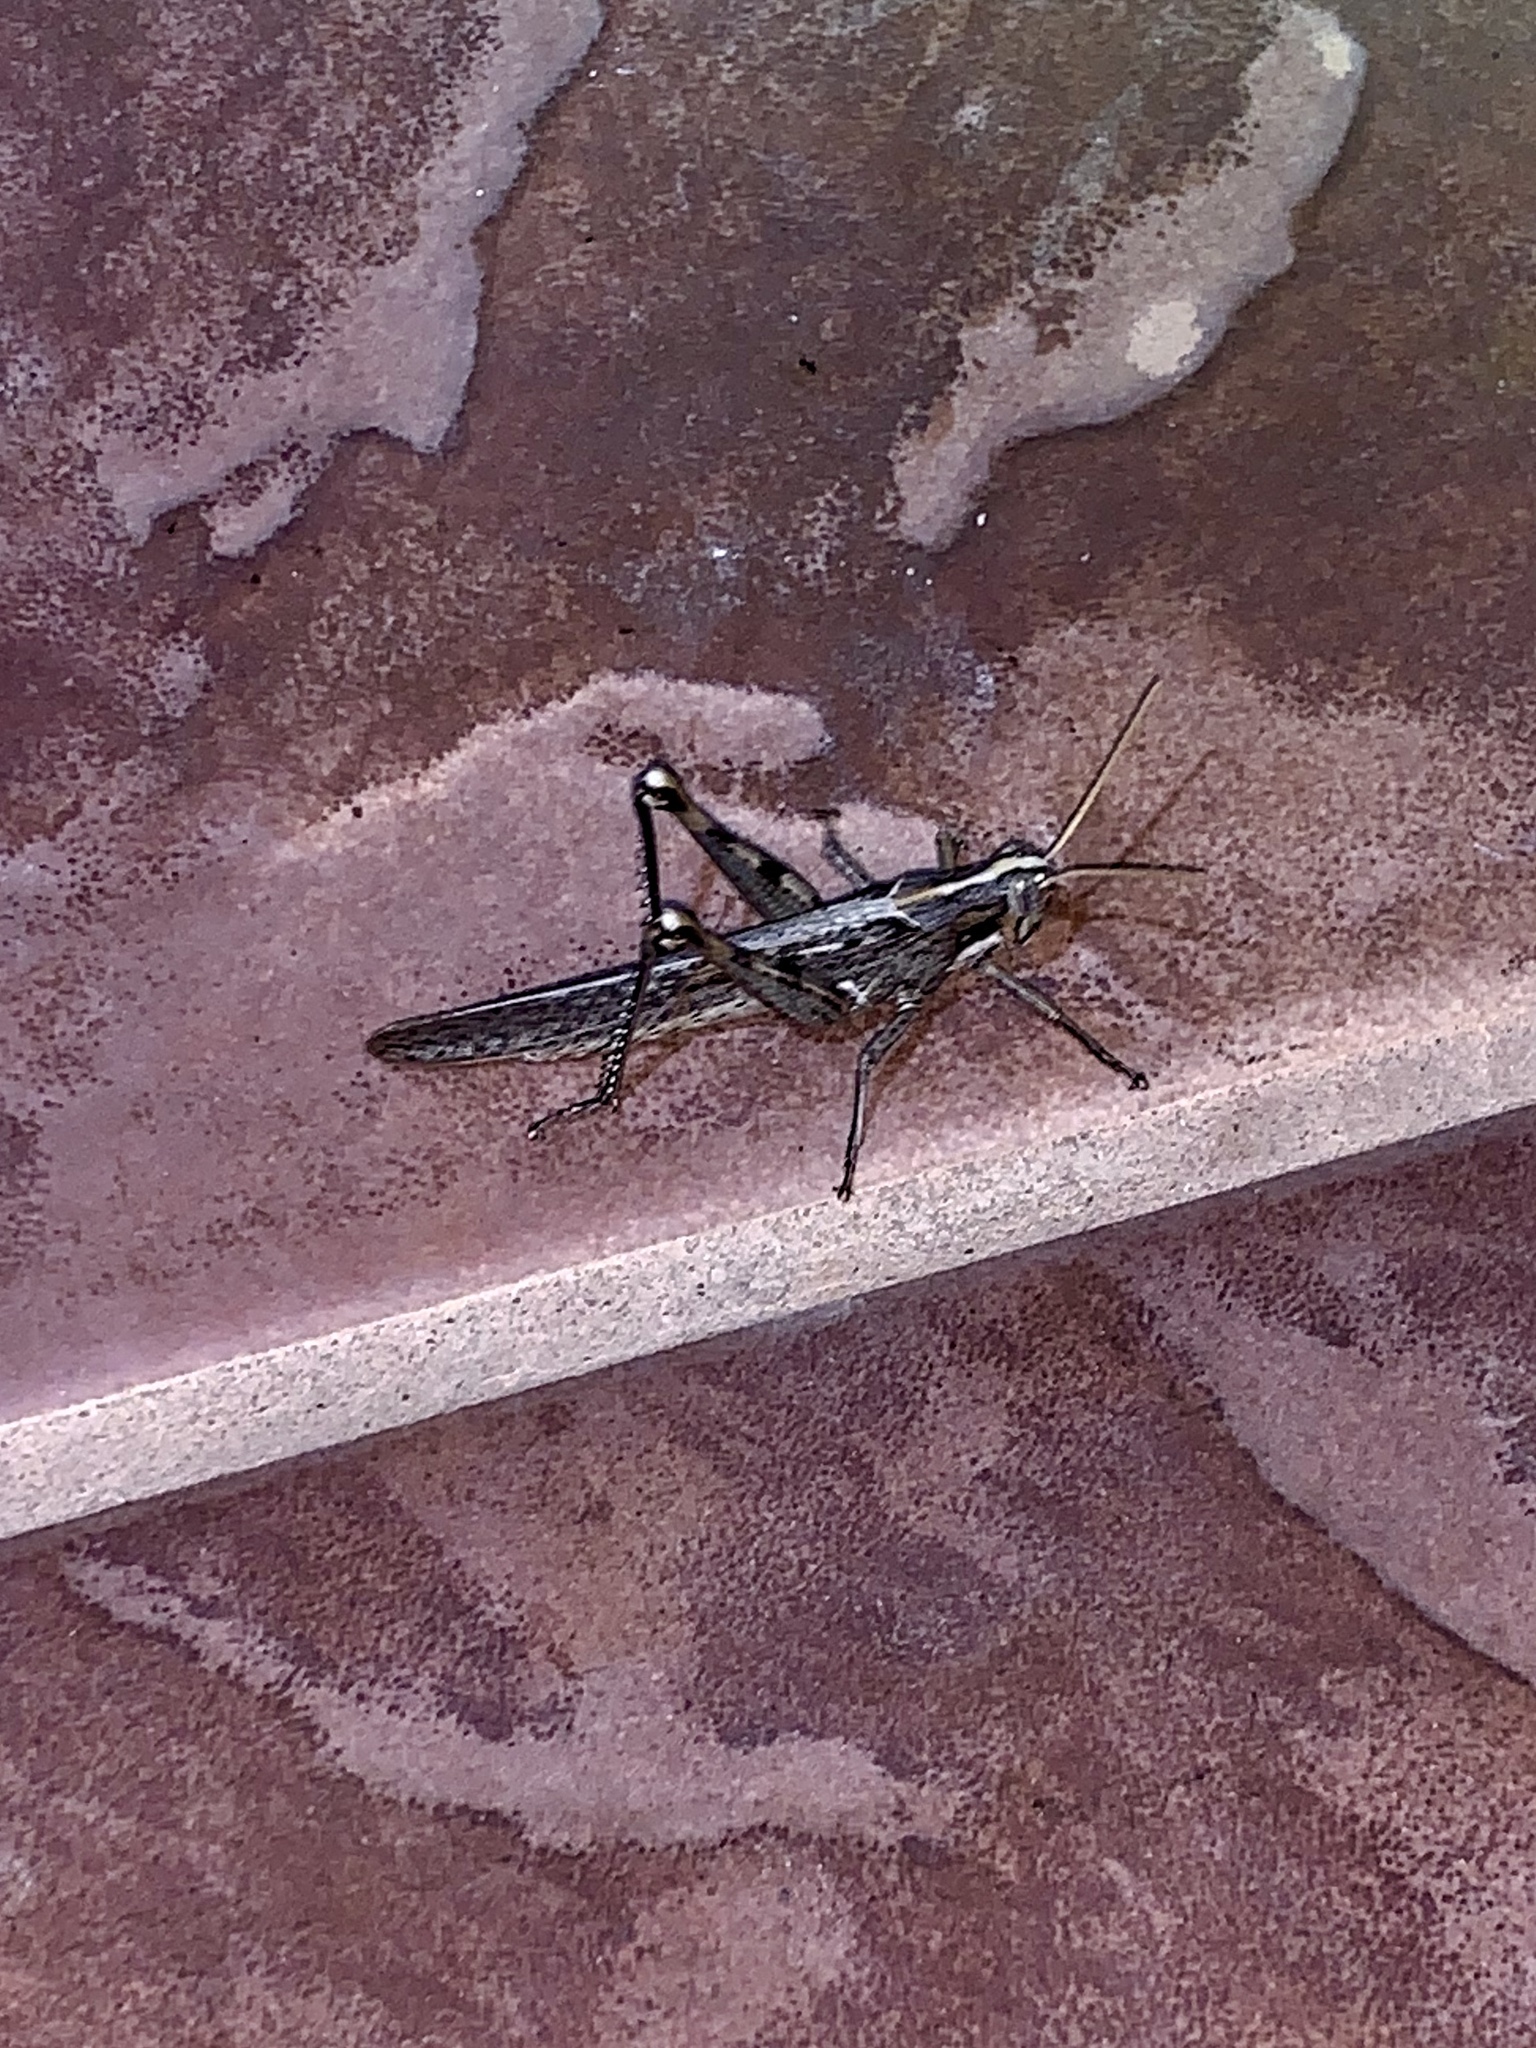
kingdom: Animalia
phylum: Arthropoda
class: Insecta
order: Orthoptera
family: Acrididae
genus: Schistocerca
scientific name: Schistocerca nitens
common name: Vagrant grasshopper
